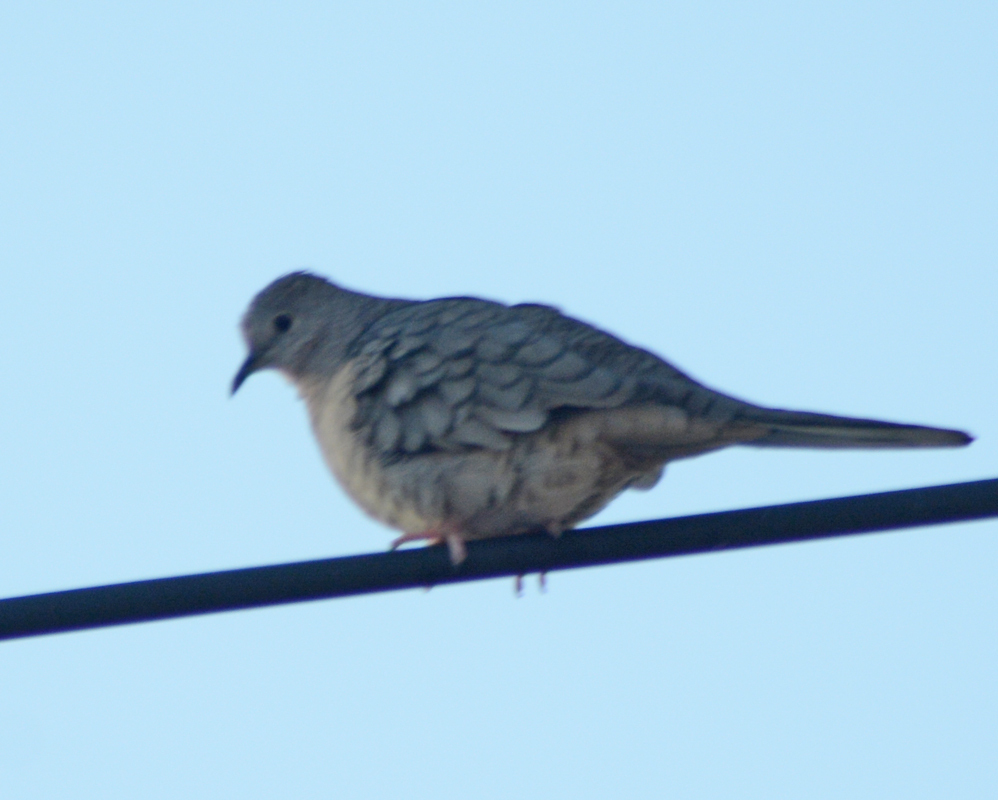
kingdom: Animalia
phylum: Chordata
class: Aves
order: Columbiformes
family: Columbidae
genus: Columbina
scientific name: Columbina inca
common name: Inca dove
